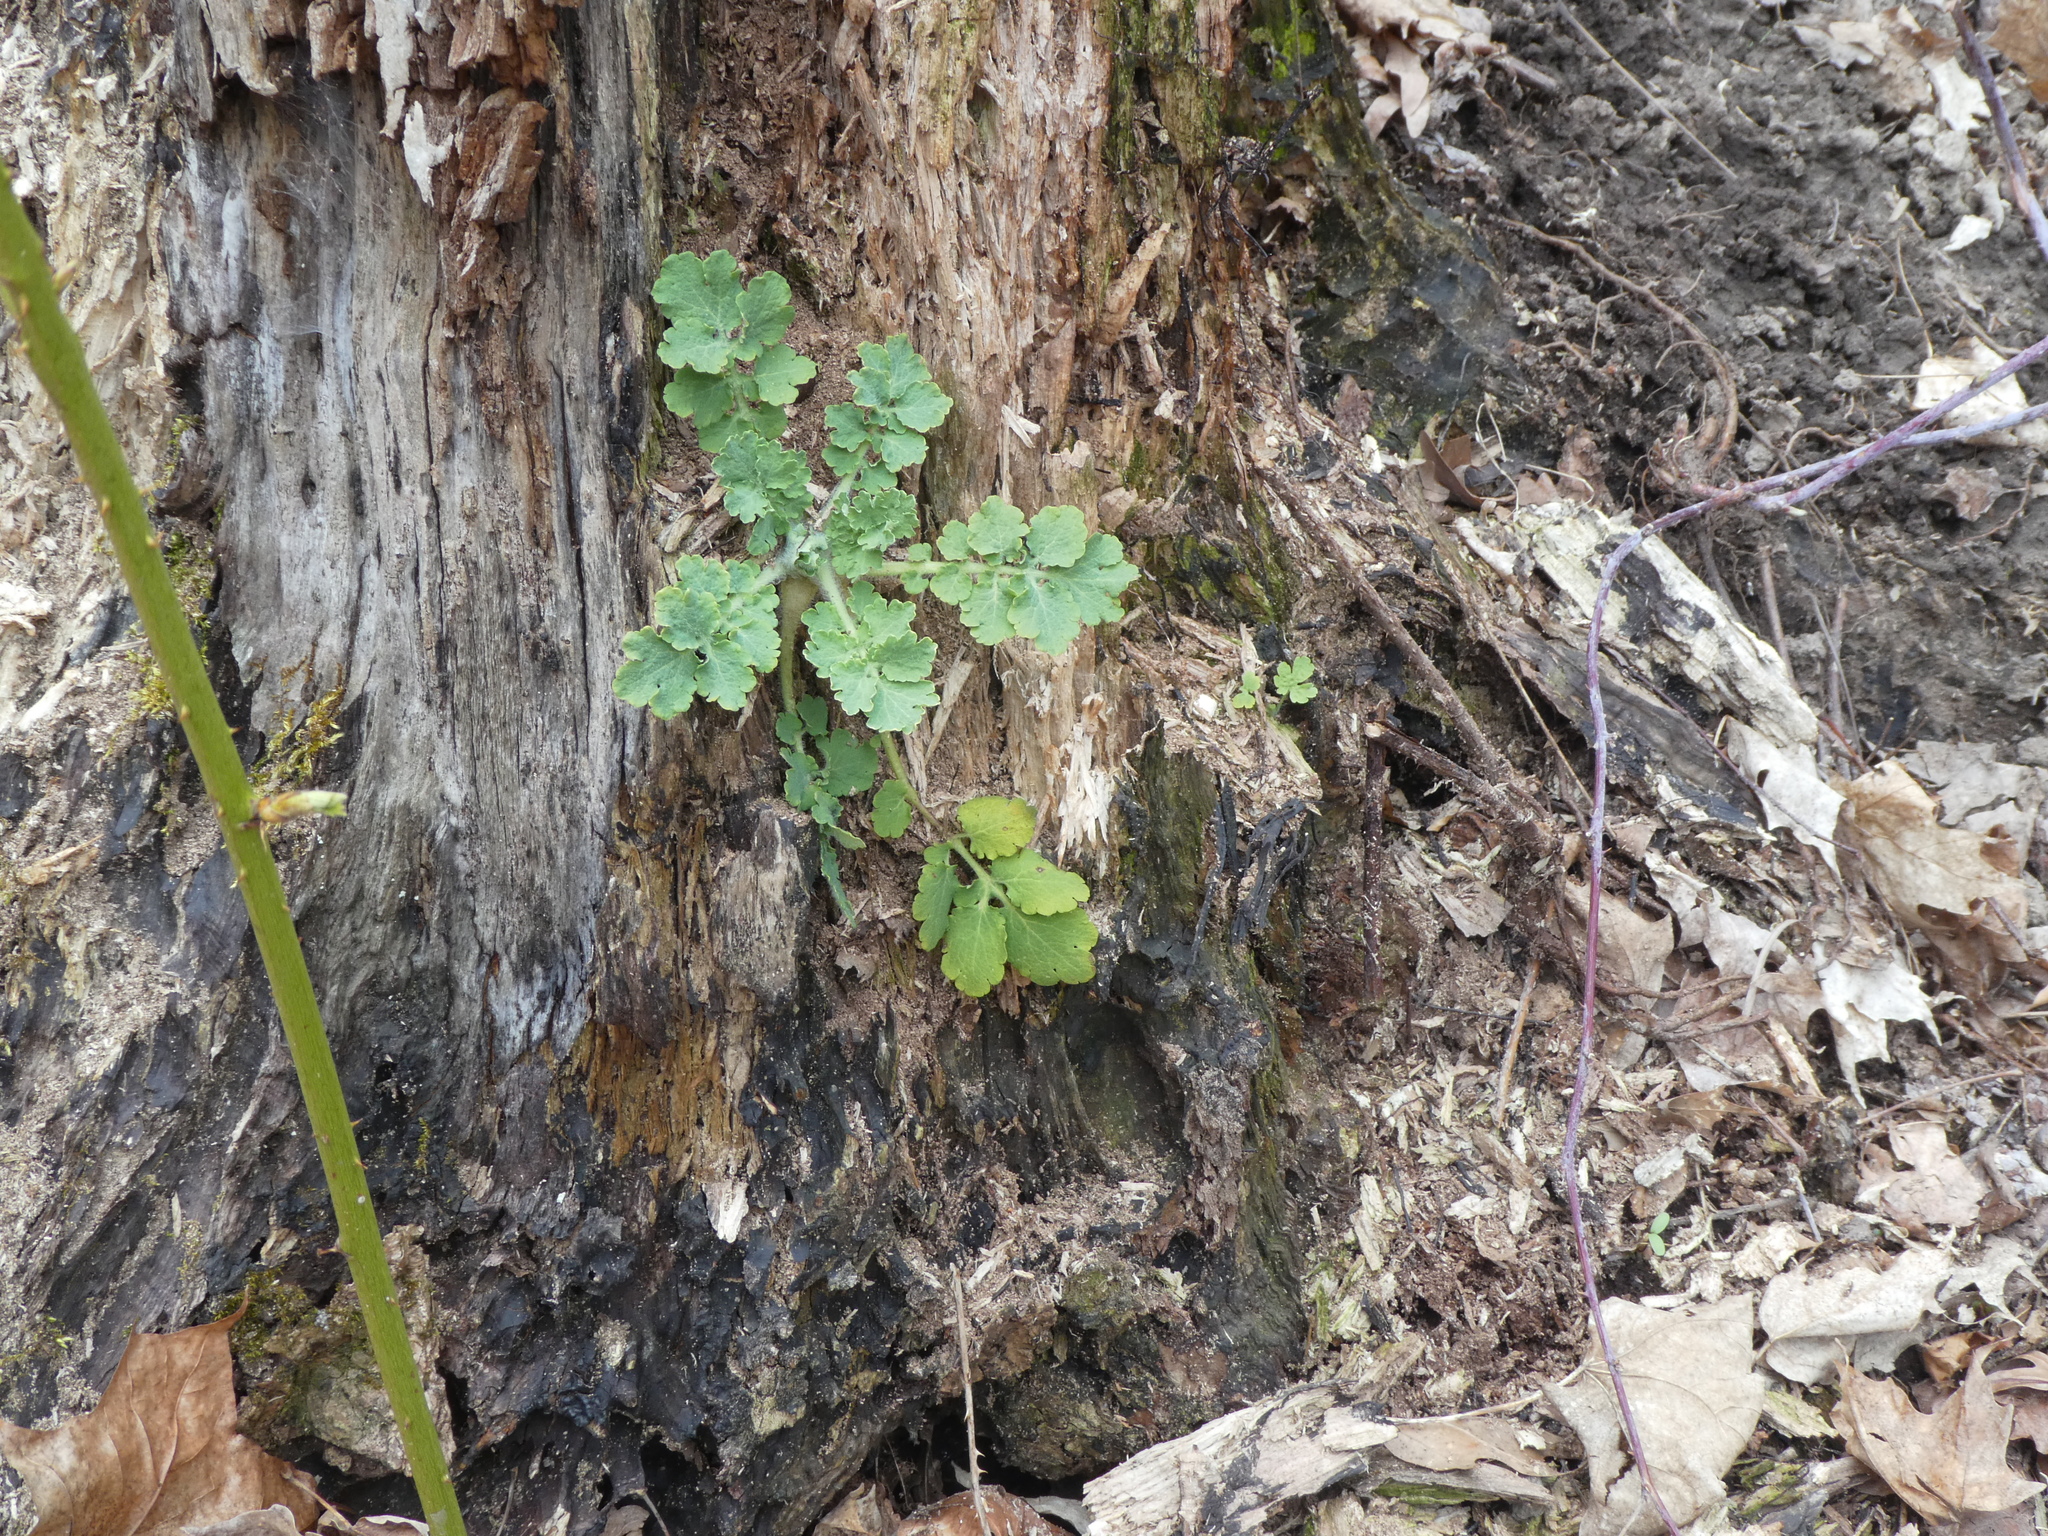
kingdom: Plantae
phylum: Tracheophyta
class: Magnoliopsida
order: Ranunculales
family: Papaveraceae
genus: Chelidonium
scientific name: Chelidonium majus
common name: Greater celandine
